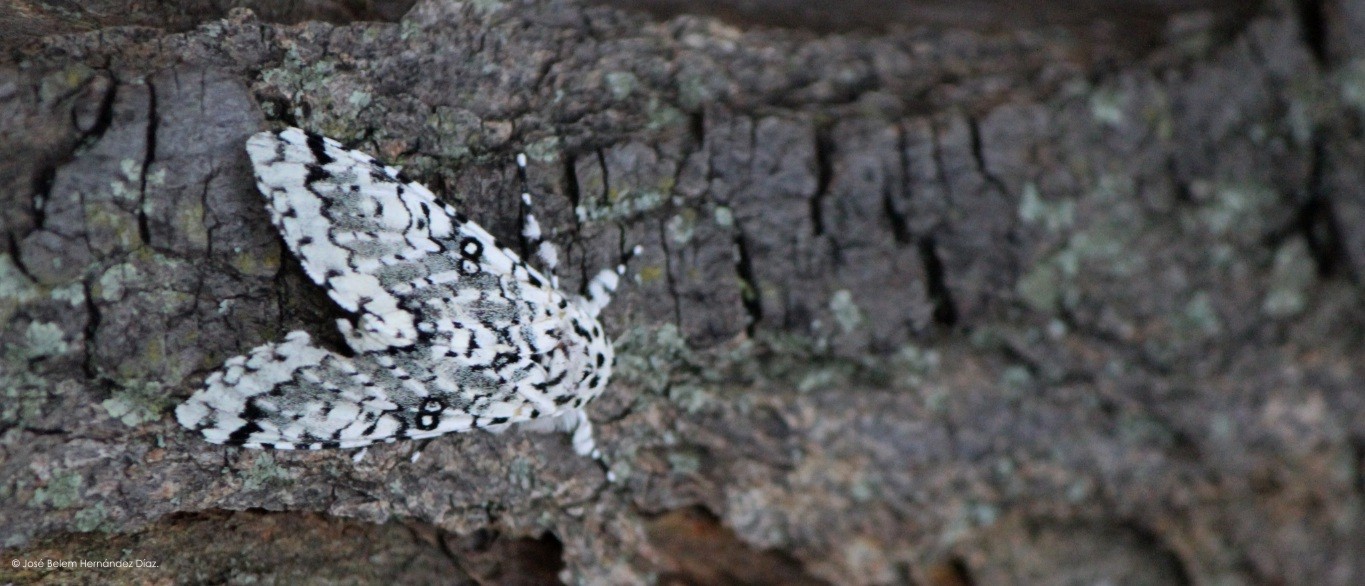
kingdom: Animalia
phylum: Arthropoda
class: Insecta
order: Lepidoptera
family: Noctuidae
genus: Lichnoptera
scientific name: Lichnoptera decora
